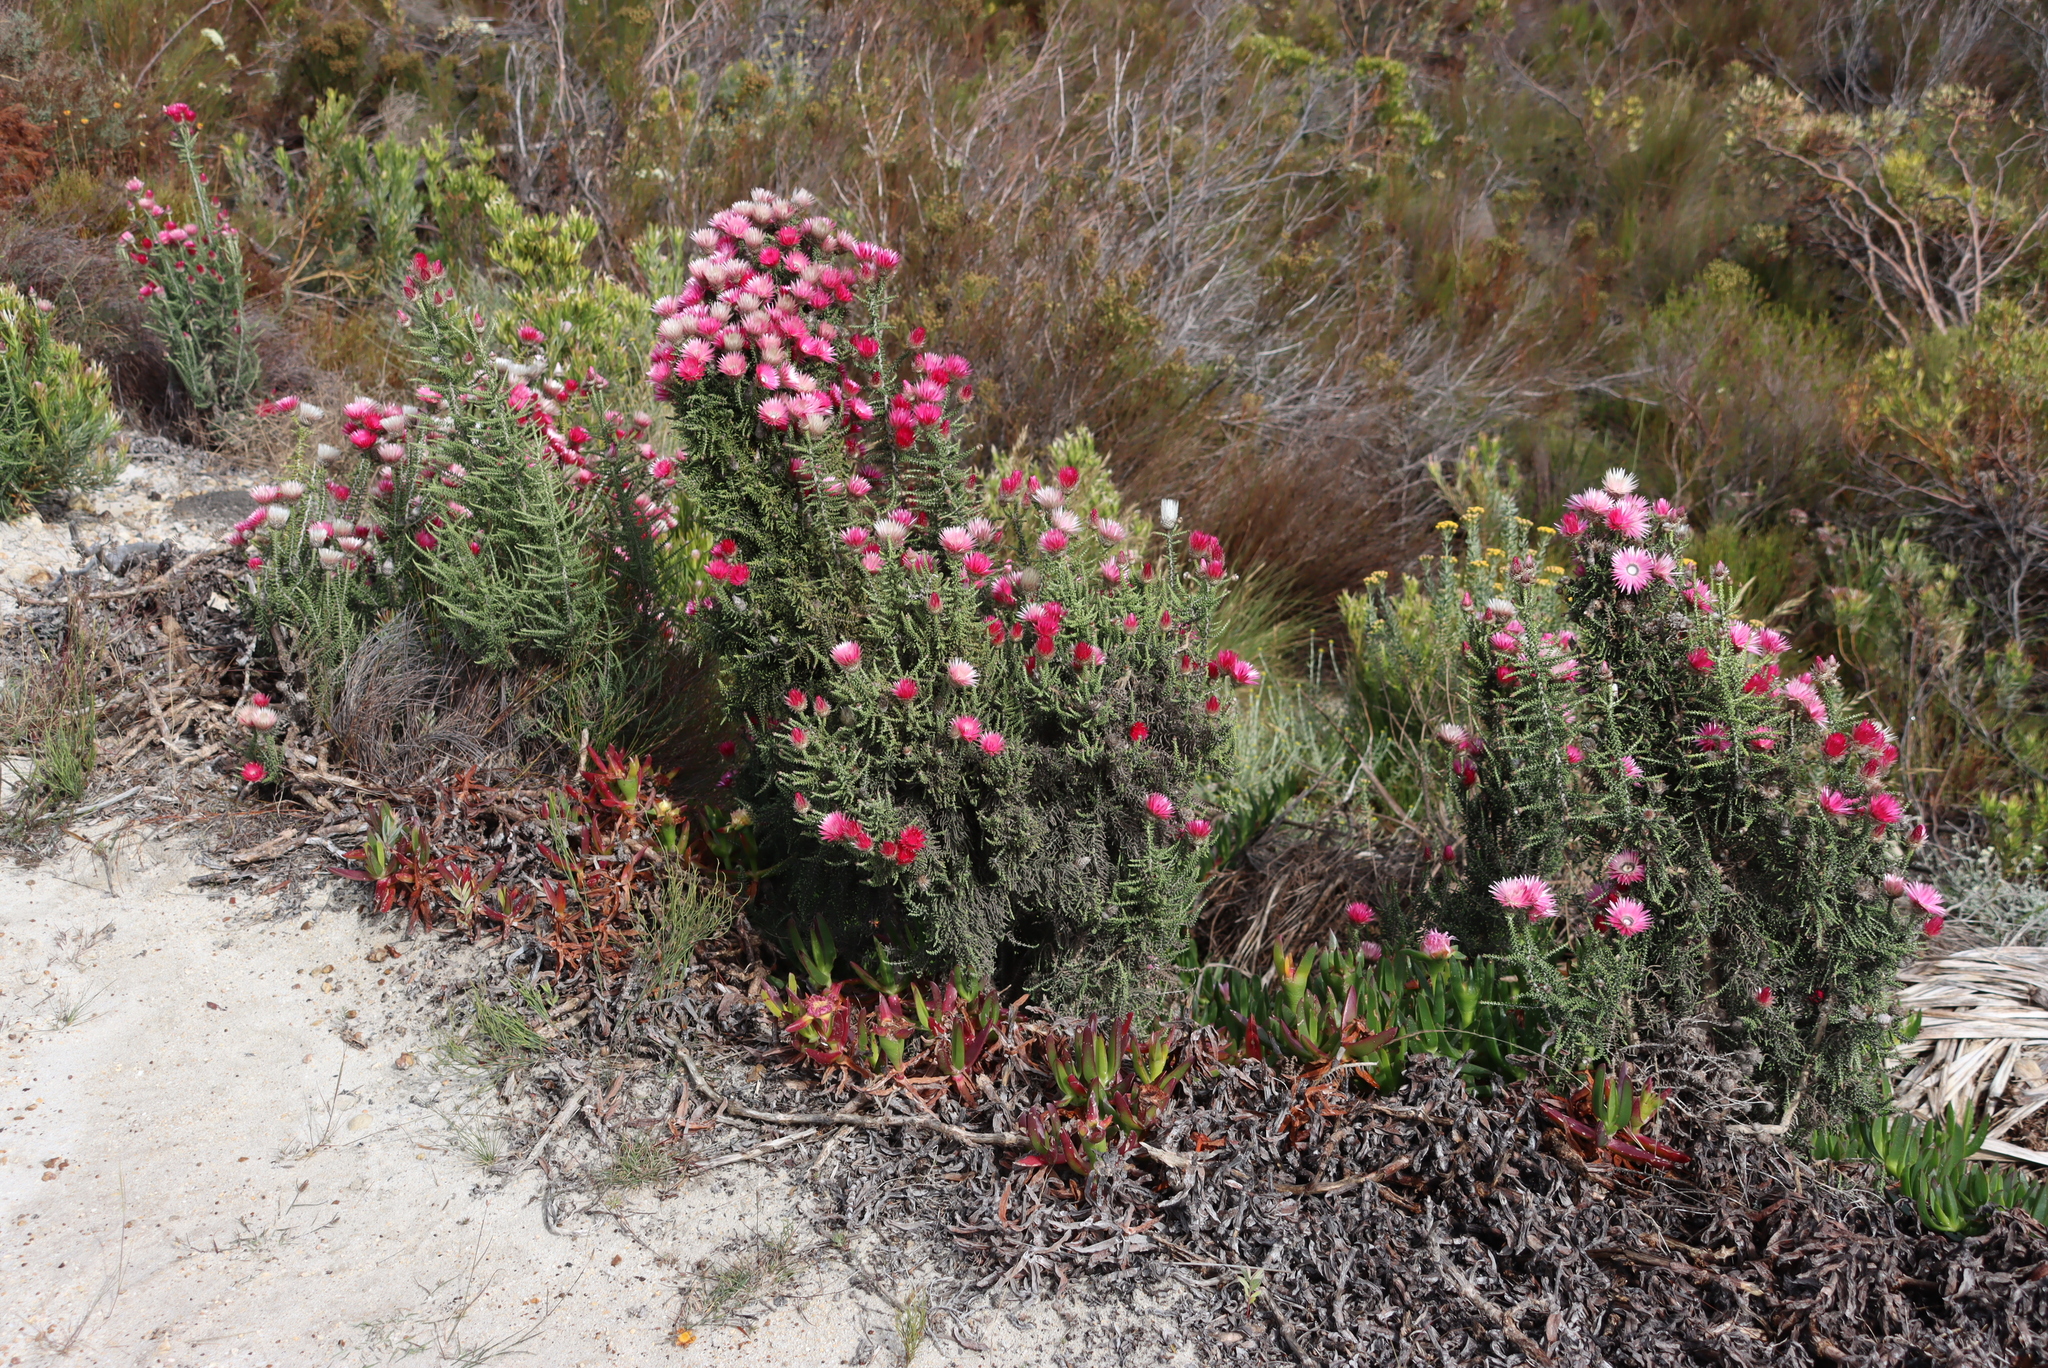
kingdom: Plantae
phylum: Tracheophyta
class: Magnoliopsida
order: Asterales
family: Asteraceae
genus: Phaenocoma
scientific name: Phaenocoma prolifera
